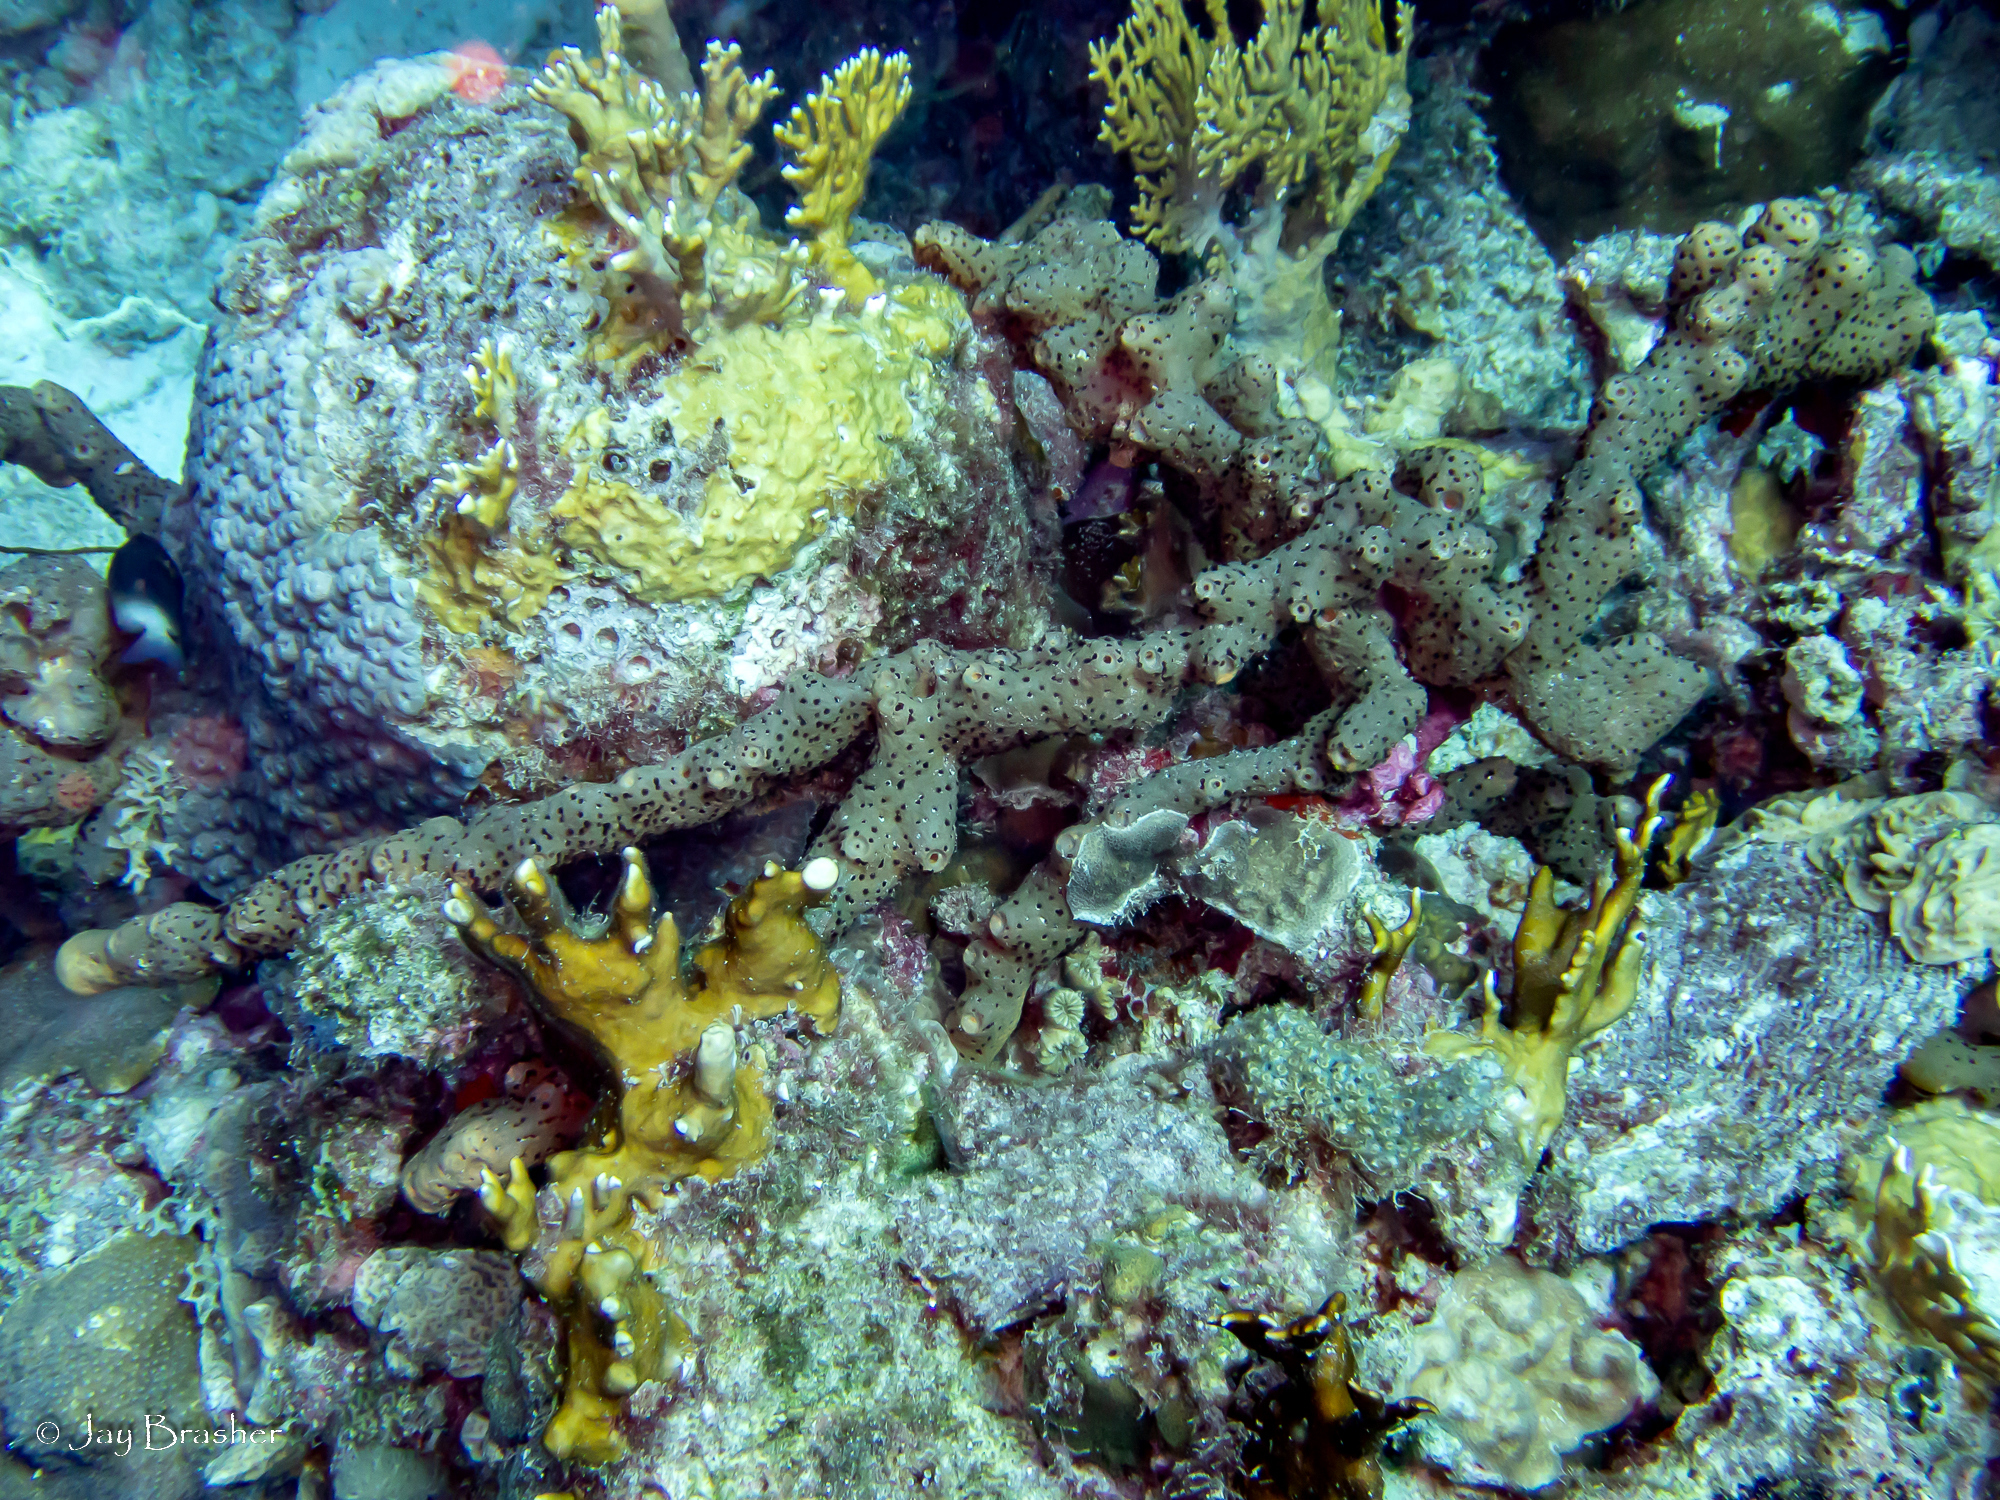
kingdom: Animalia
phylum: Cnidaria
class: Hydrozoa
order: Anthoathecata
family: Milleporidae
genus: Millepora
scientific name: Millepora alcicornis
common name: Branching fire coral
